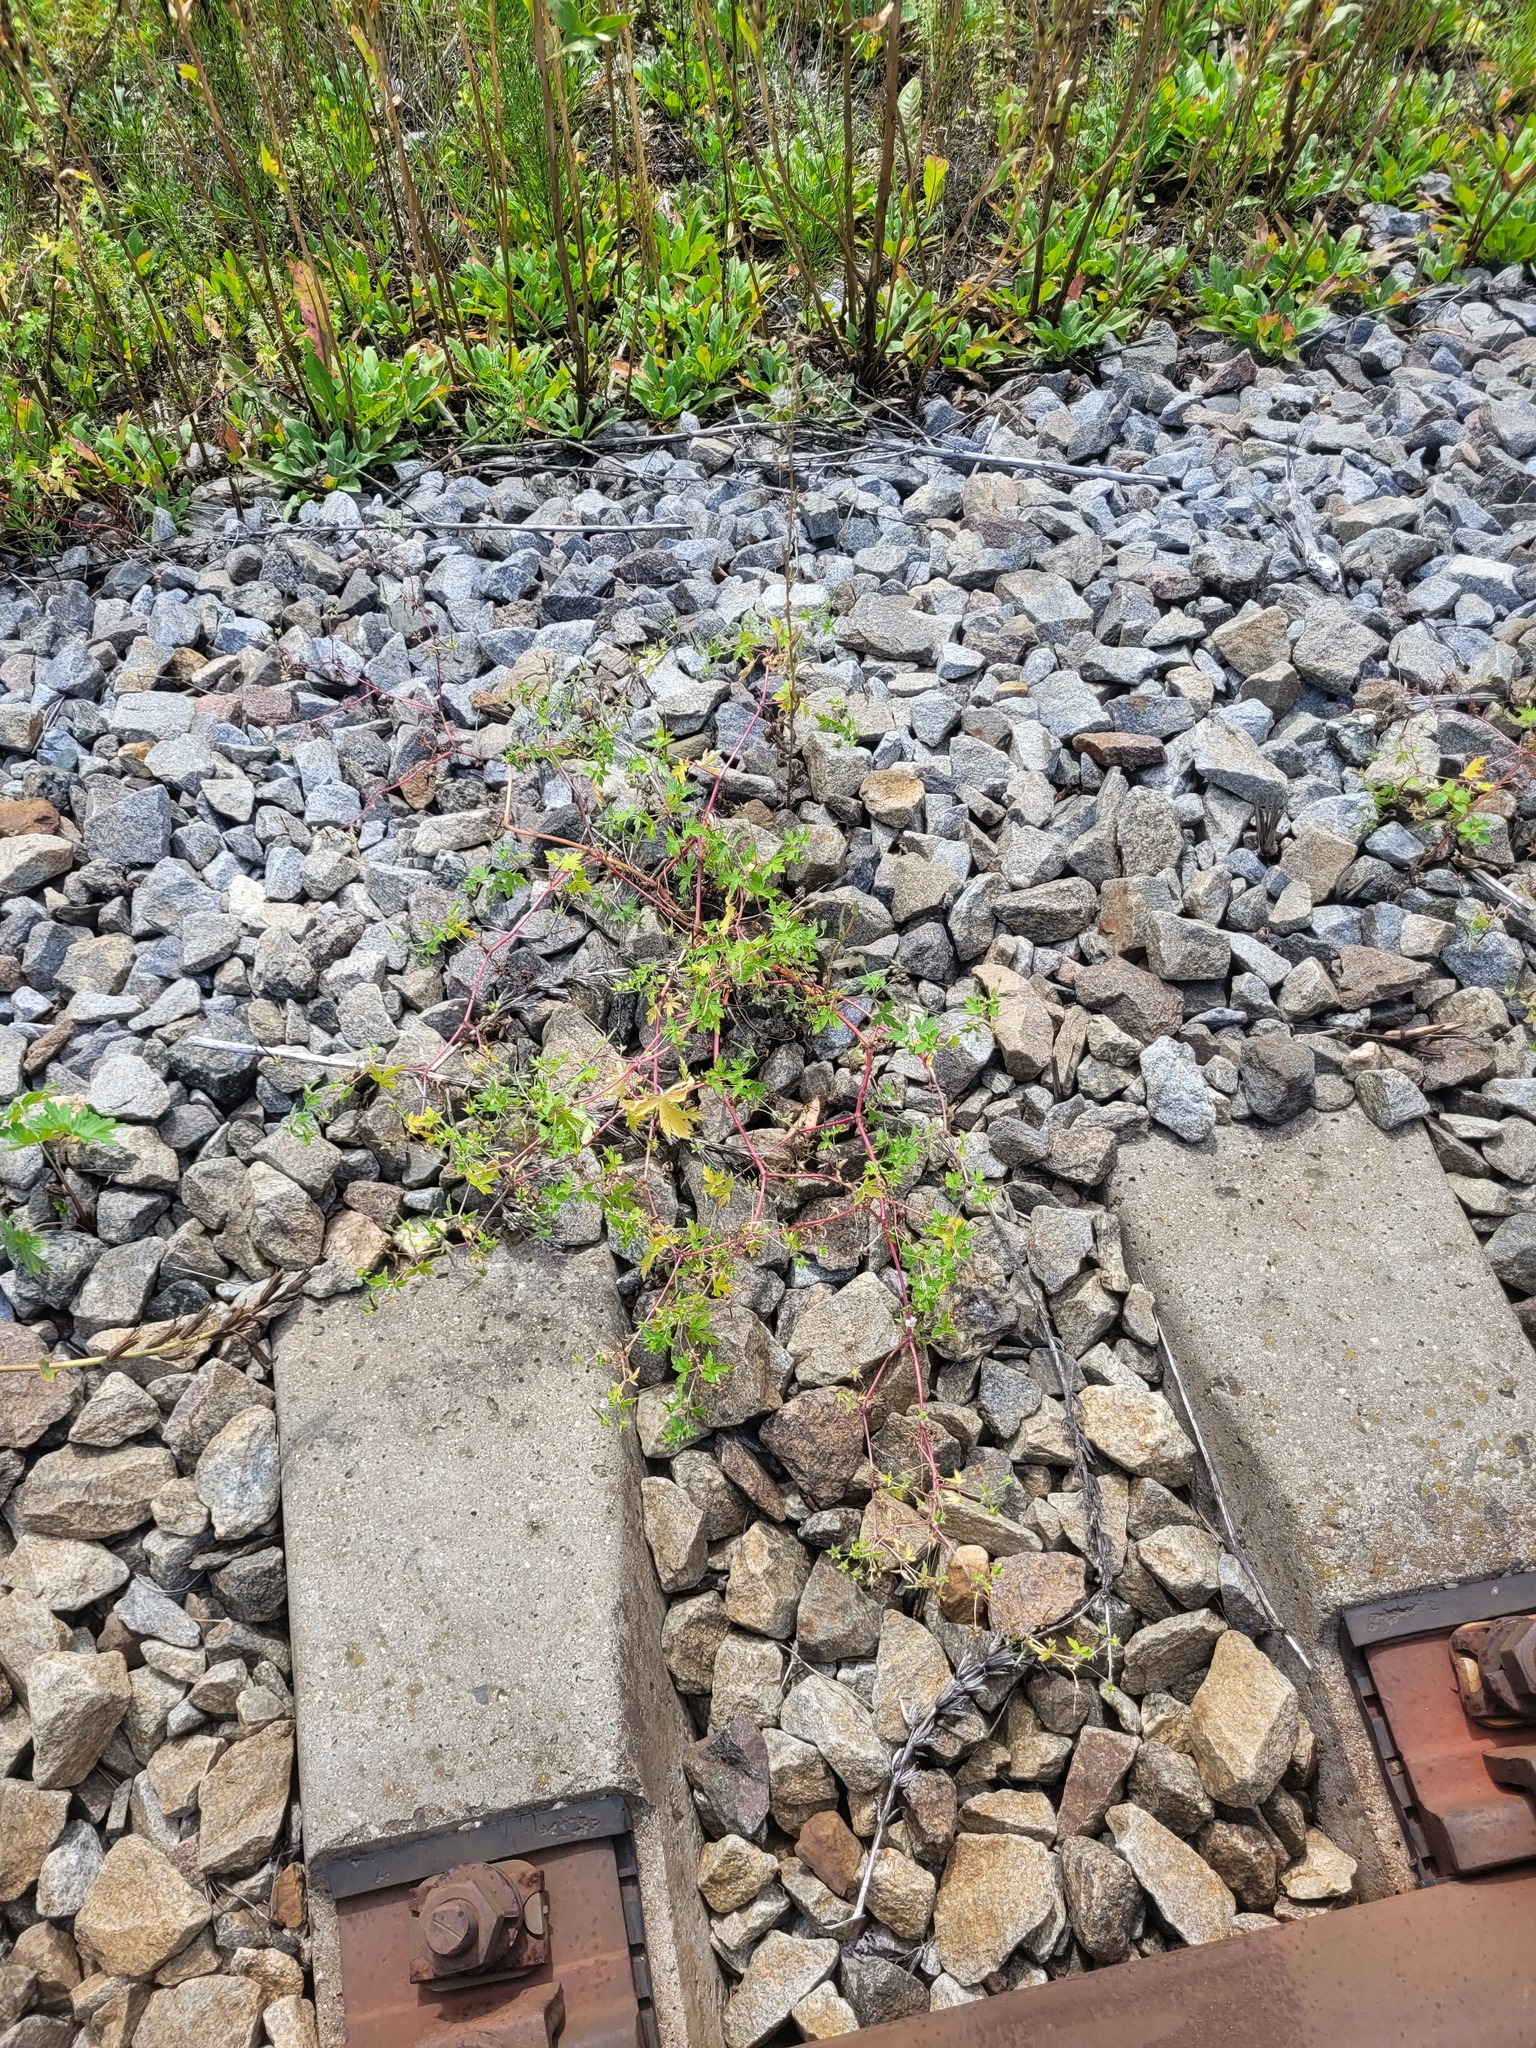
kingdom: Plantae
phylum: Tracheophyta
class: Magnoliopsida
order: Geraniales
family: Geraniaceae
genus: Geranium
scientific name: Geranium sibiricum
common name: Siberian crane's-bill
